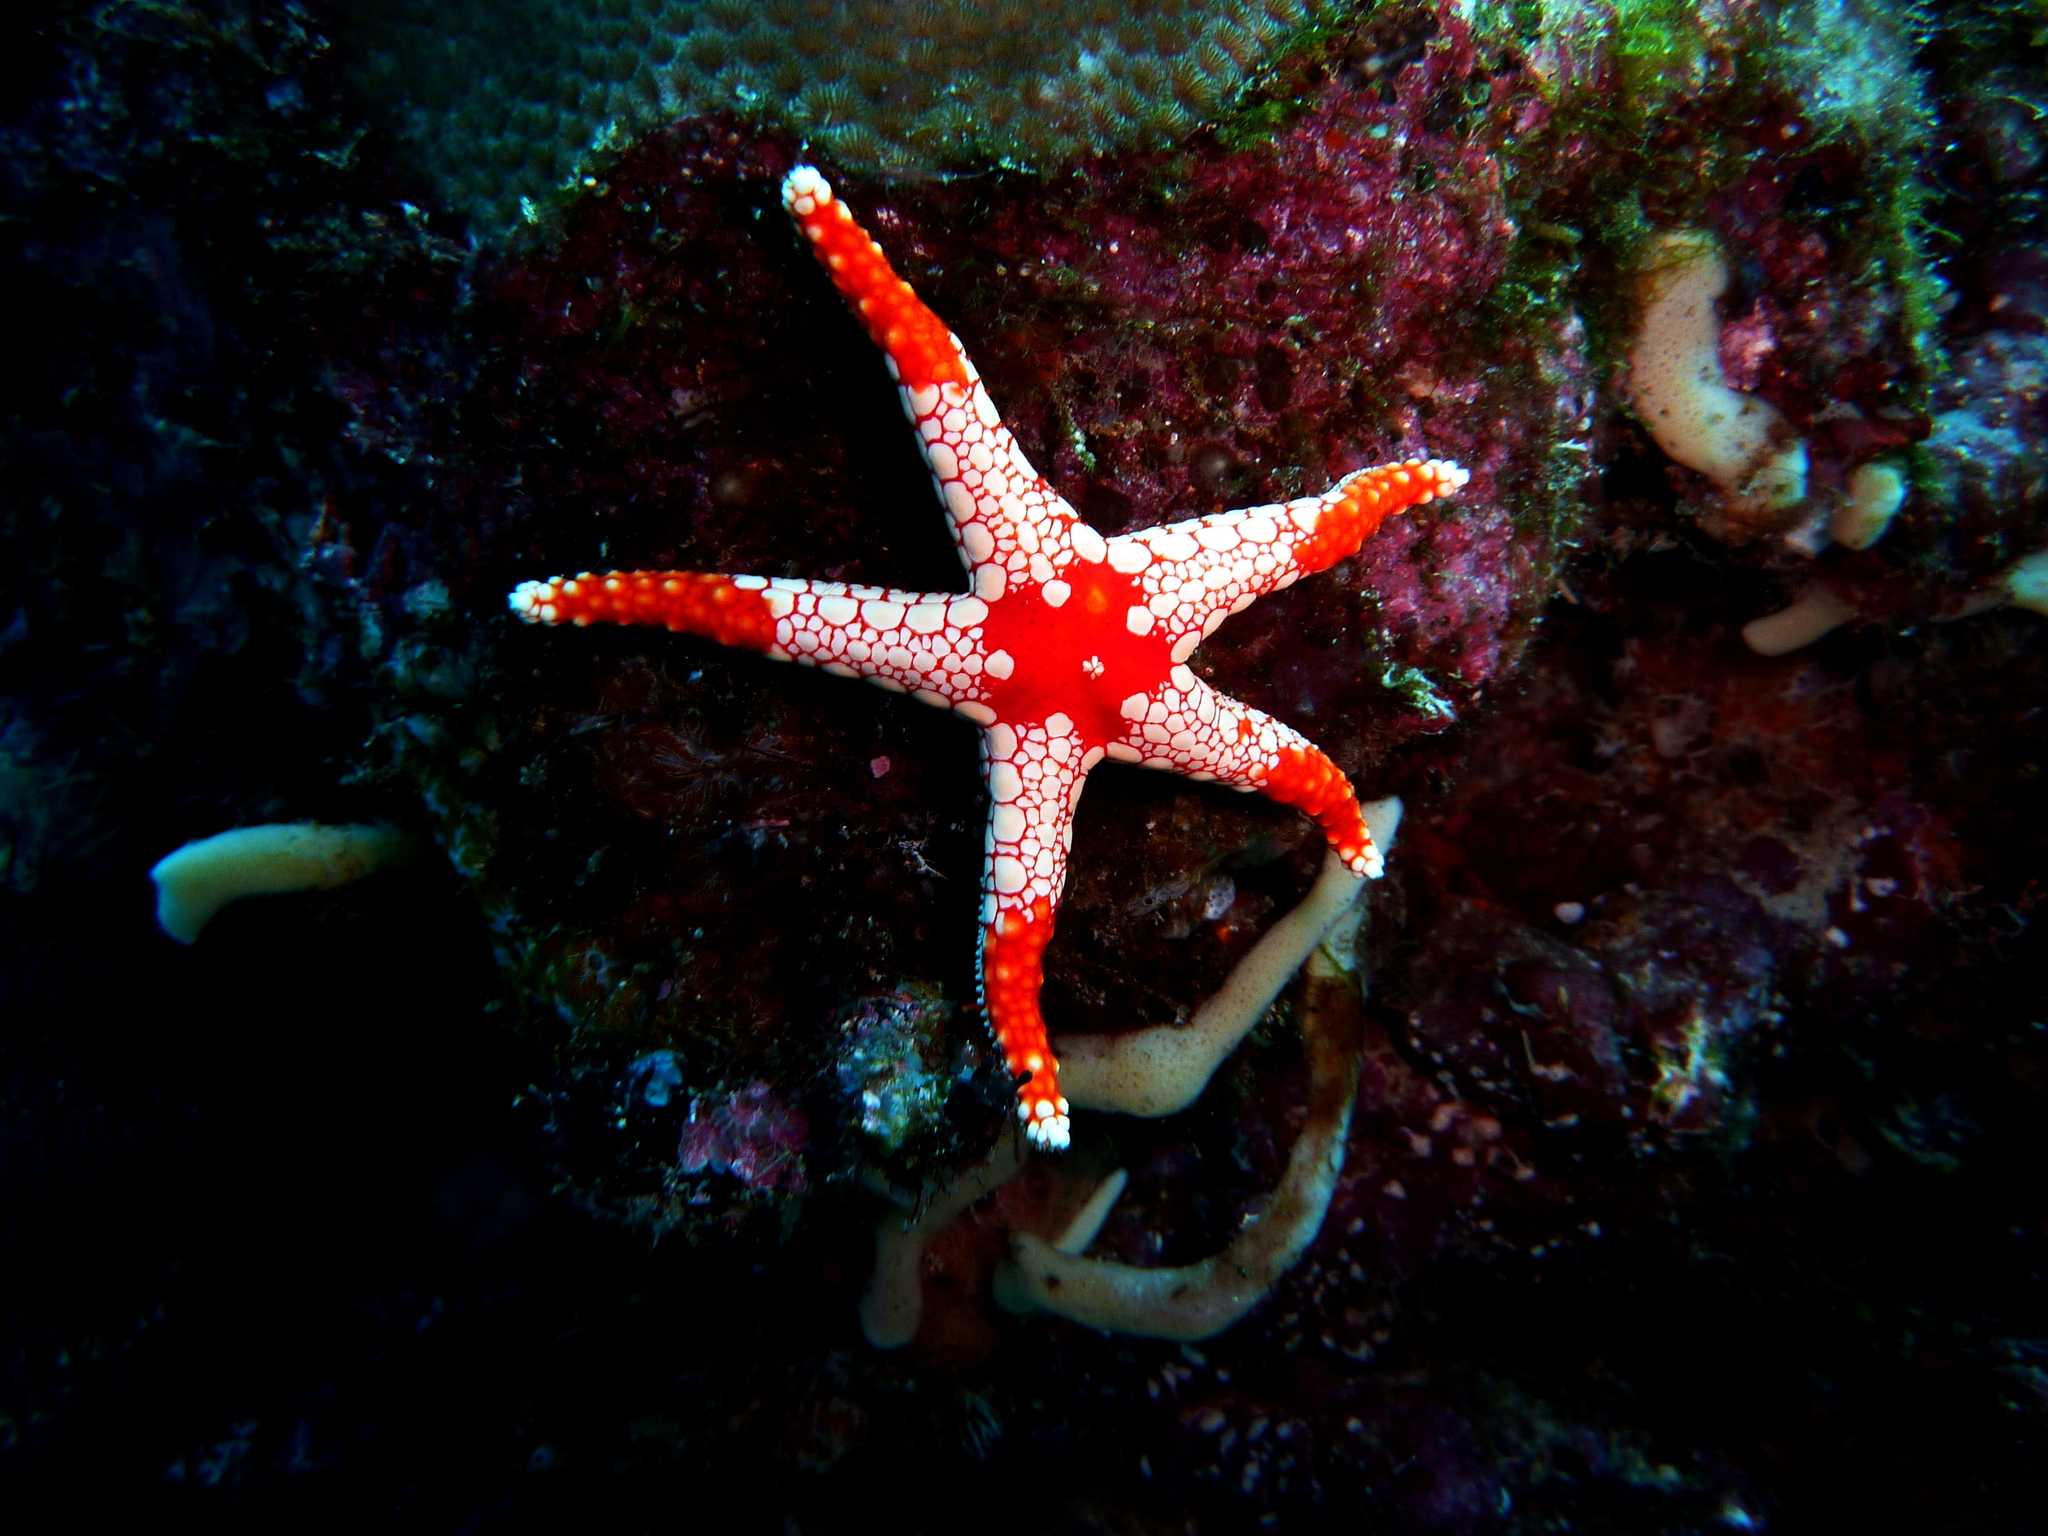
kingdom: Animalia
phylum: Echinodermata
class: Asteroidea
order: Valvatida
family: Goniasteridae
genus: Fromia
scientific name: Fromia monilis
